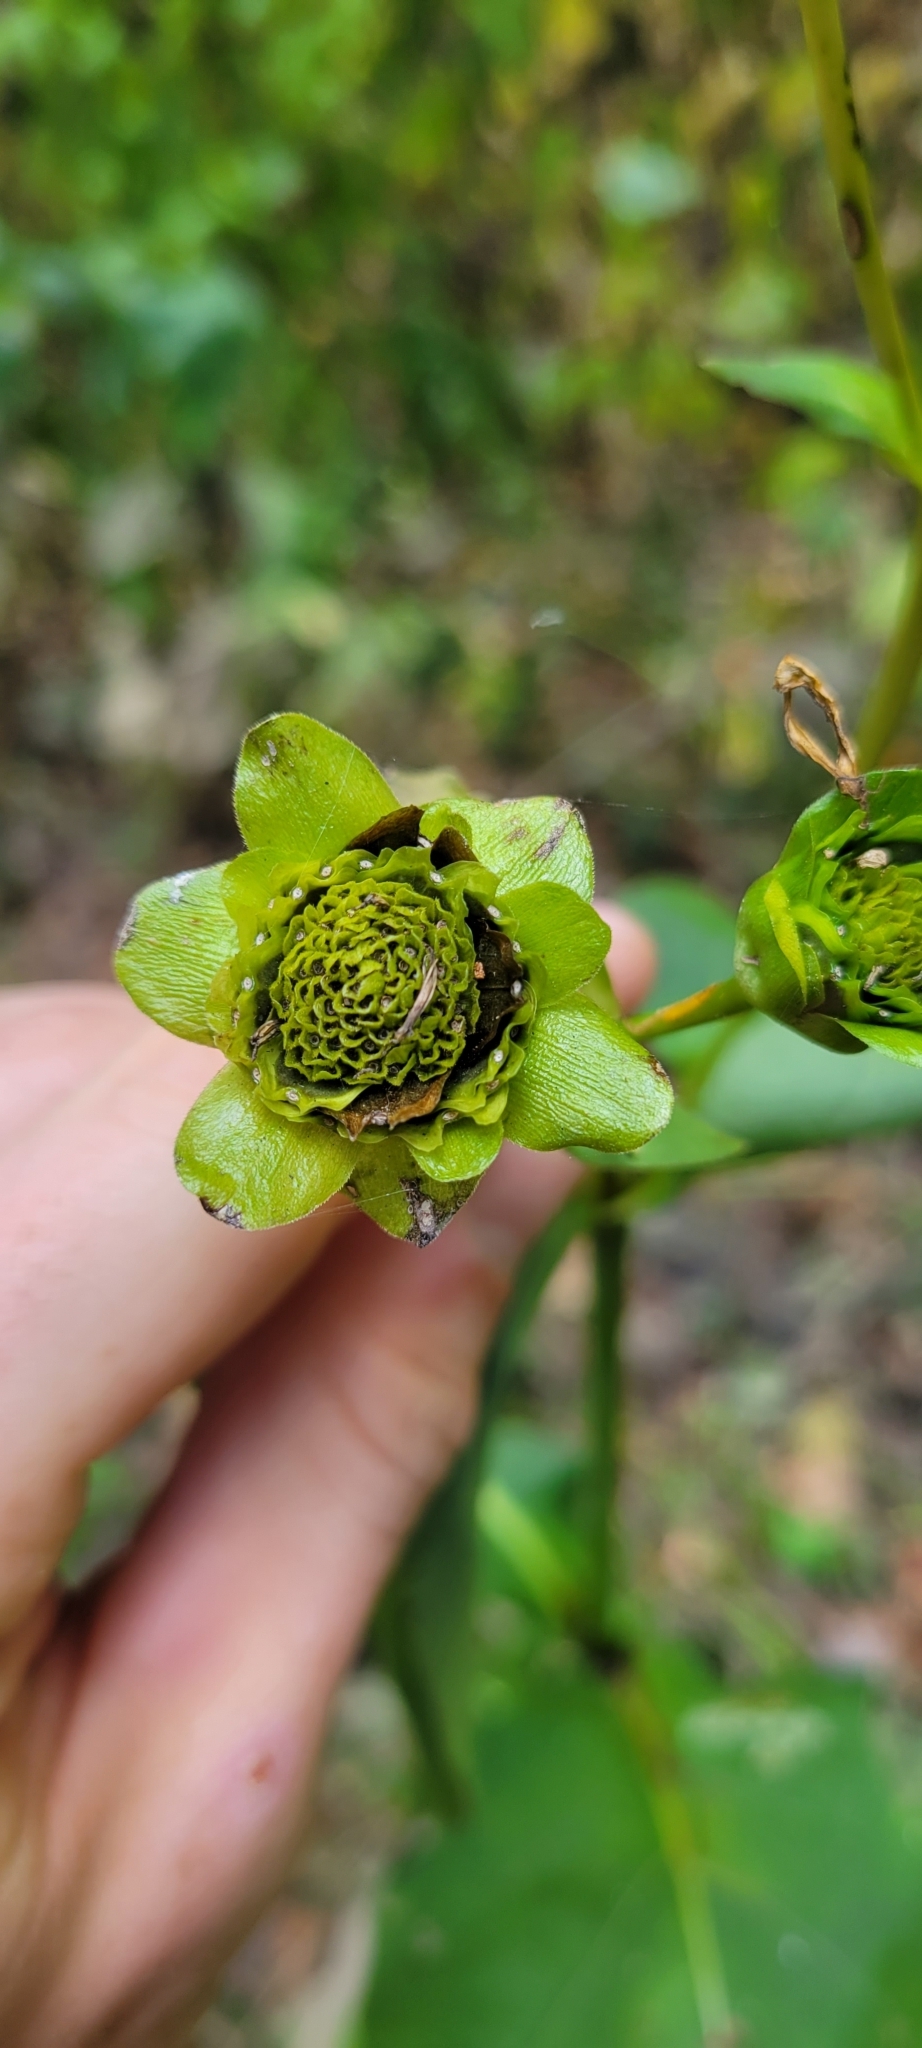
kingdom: Plantae
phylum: Tracheophyta
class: Magnoliopsida
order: Asterales
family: Asteraceae
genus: Silphium
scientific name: Silphium perfoliatum
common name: Cup-plant
